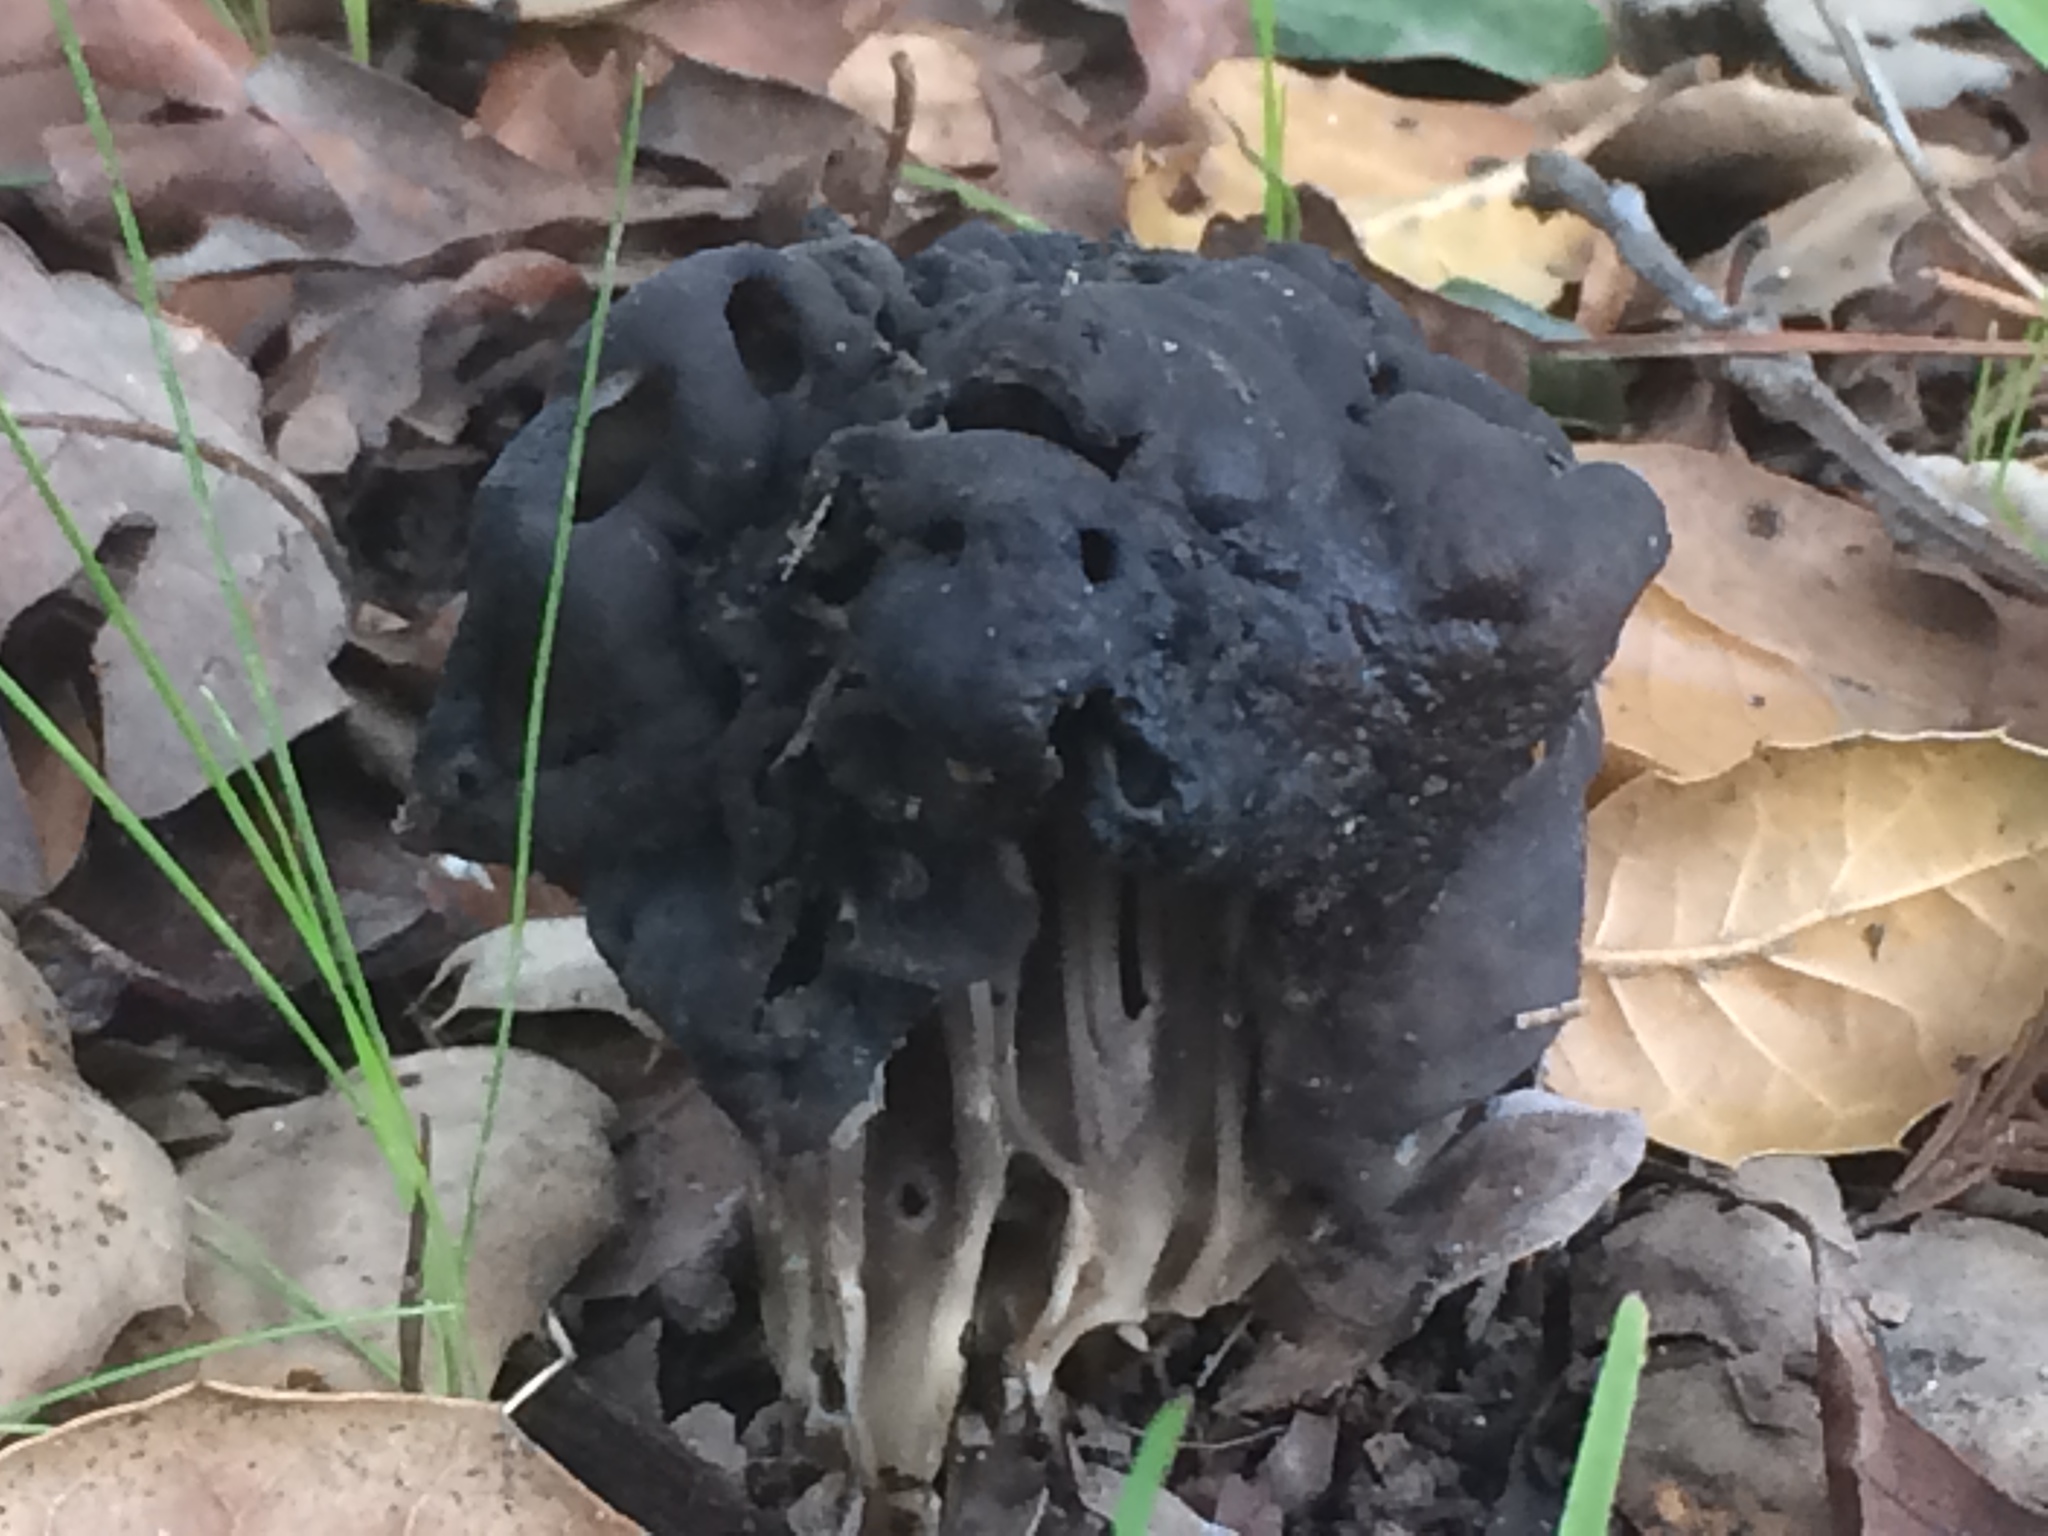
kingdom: Fungi
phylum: Ascomycota
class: Pezizomycetes
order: Pezizales
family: Helvellaceae
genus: Helvella
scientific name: Helvella dryophila
